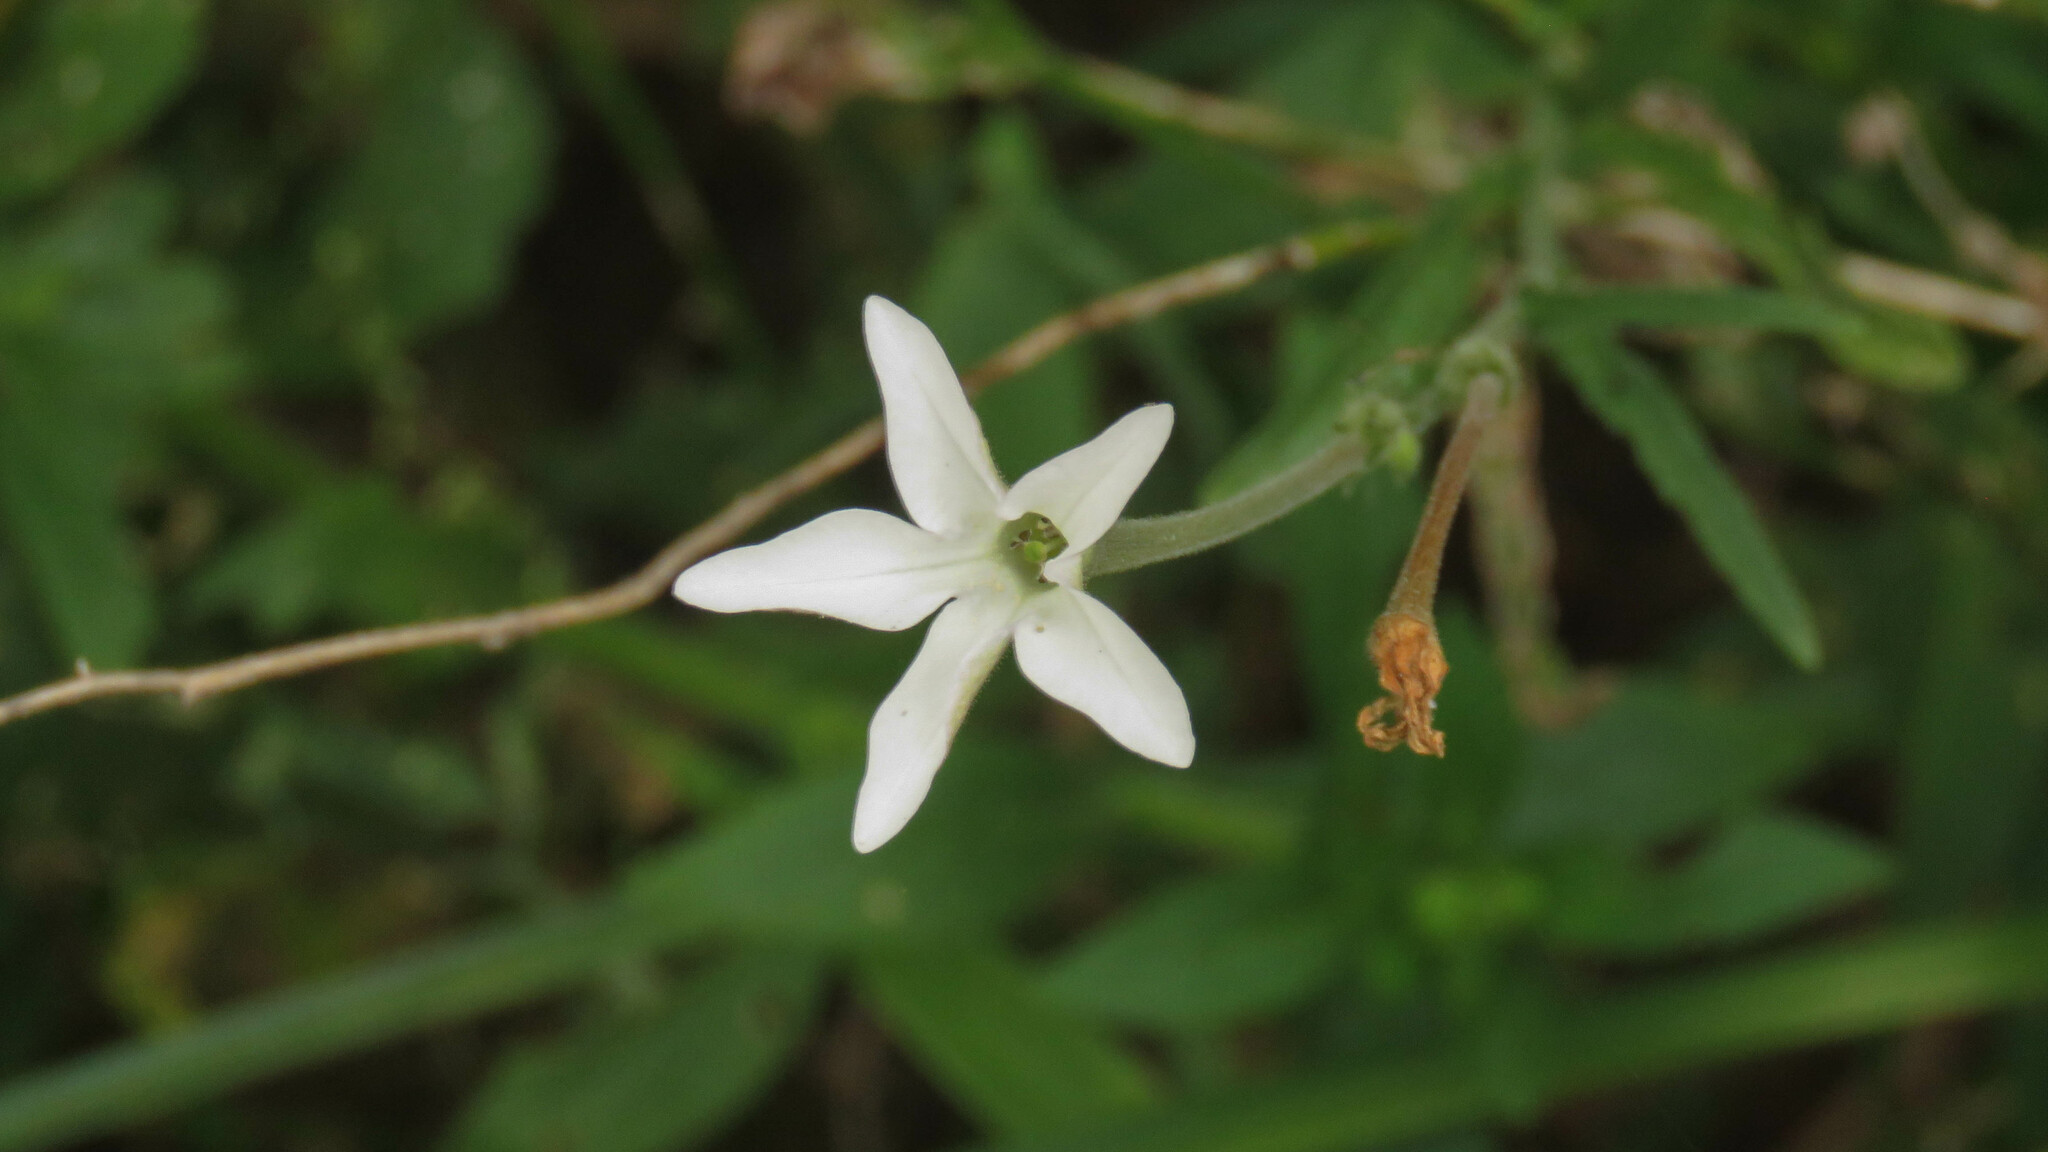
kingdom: Plantae
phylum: Tracheophyta
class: Magnoliopsida
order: Solanales
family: Solanaceae
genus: Nicotiana
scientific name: Nicotiana longiflora
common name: Long-flowered tobacco
